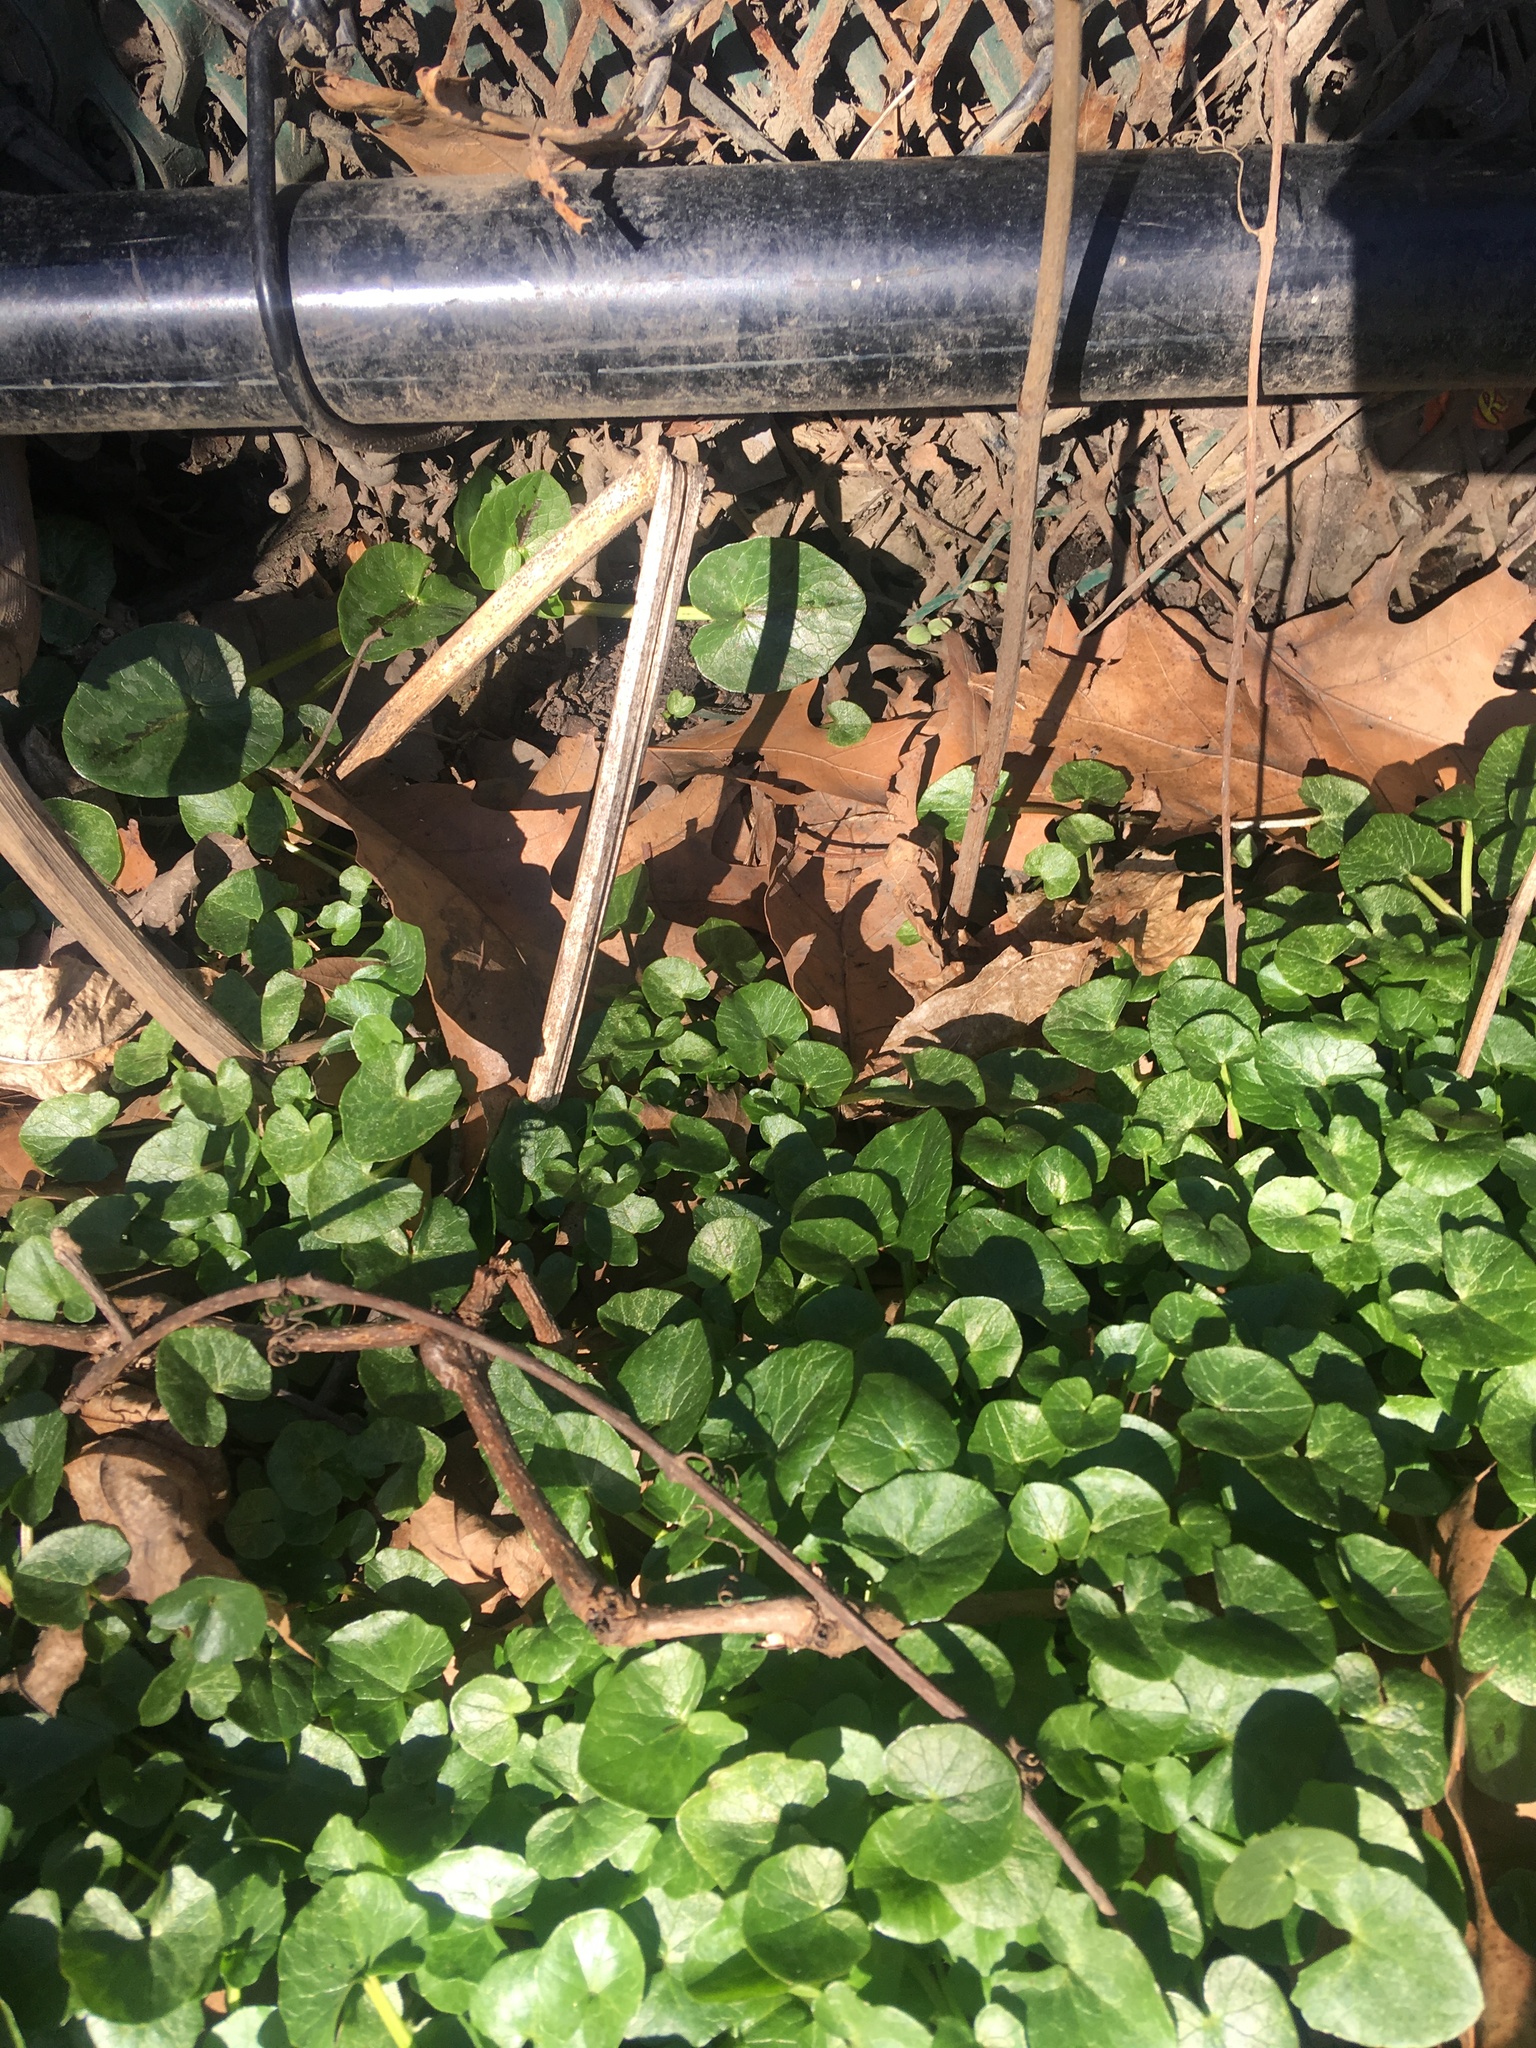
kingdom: Plantae
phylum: Tracheophyta
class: Magnoliopsida
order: Ranunculales
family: Ranunculaceae
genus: Ficaria
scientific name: Ficaria verna
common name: Lesser celandine
